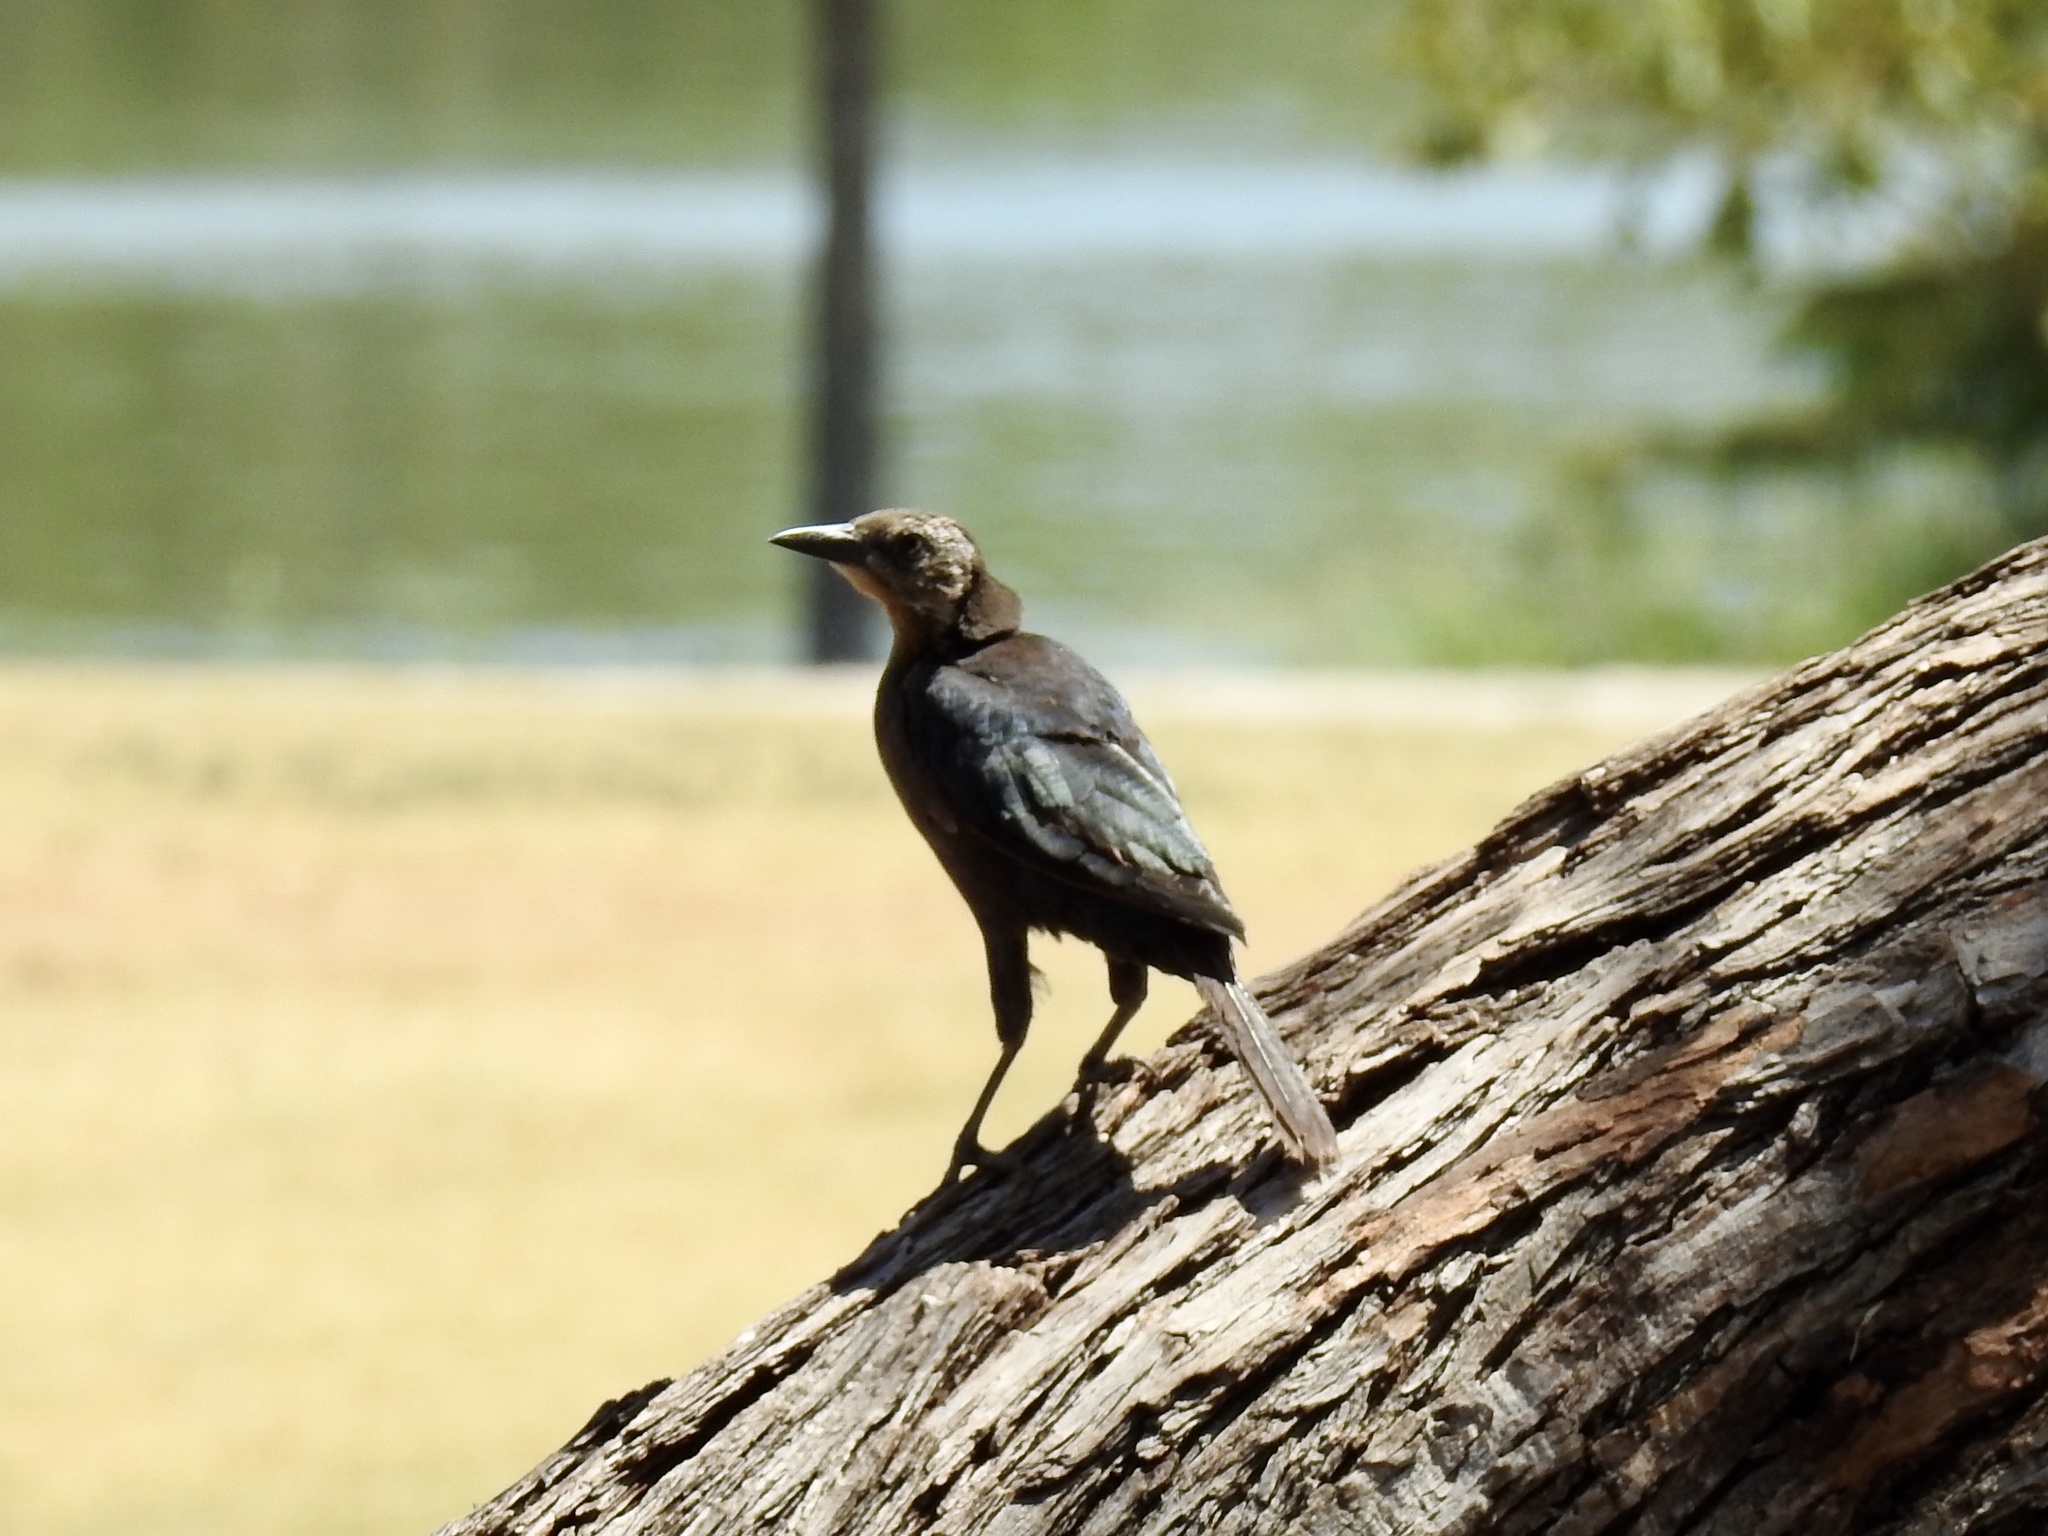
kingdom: Animalia
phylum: Chordata
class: Aves
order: Passeriformes
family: Icteridae
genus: Quiscalus
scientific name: Quiscalus mexicanus
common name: Great-tailed grackle
